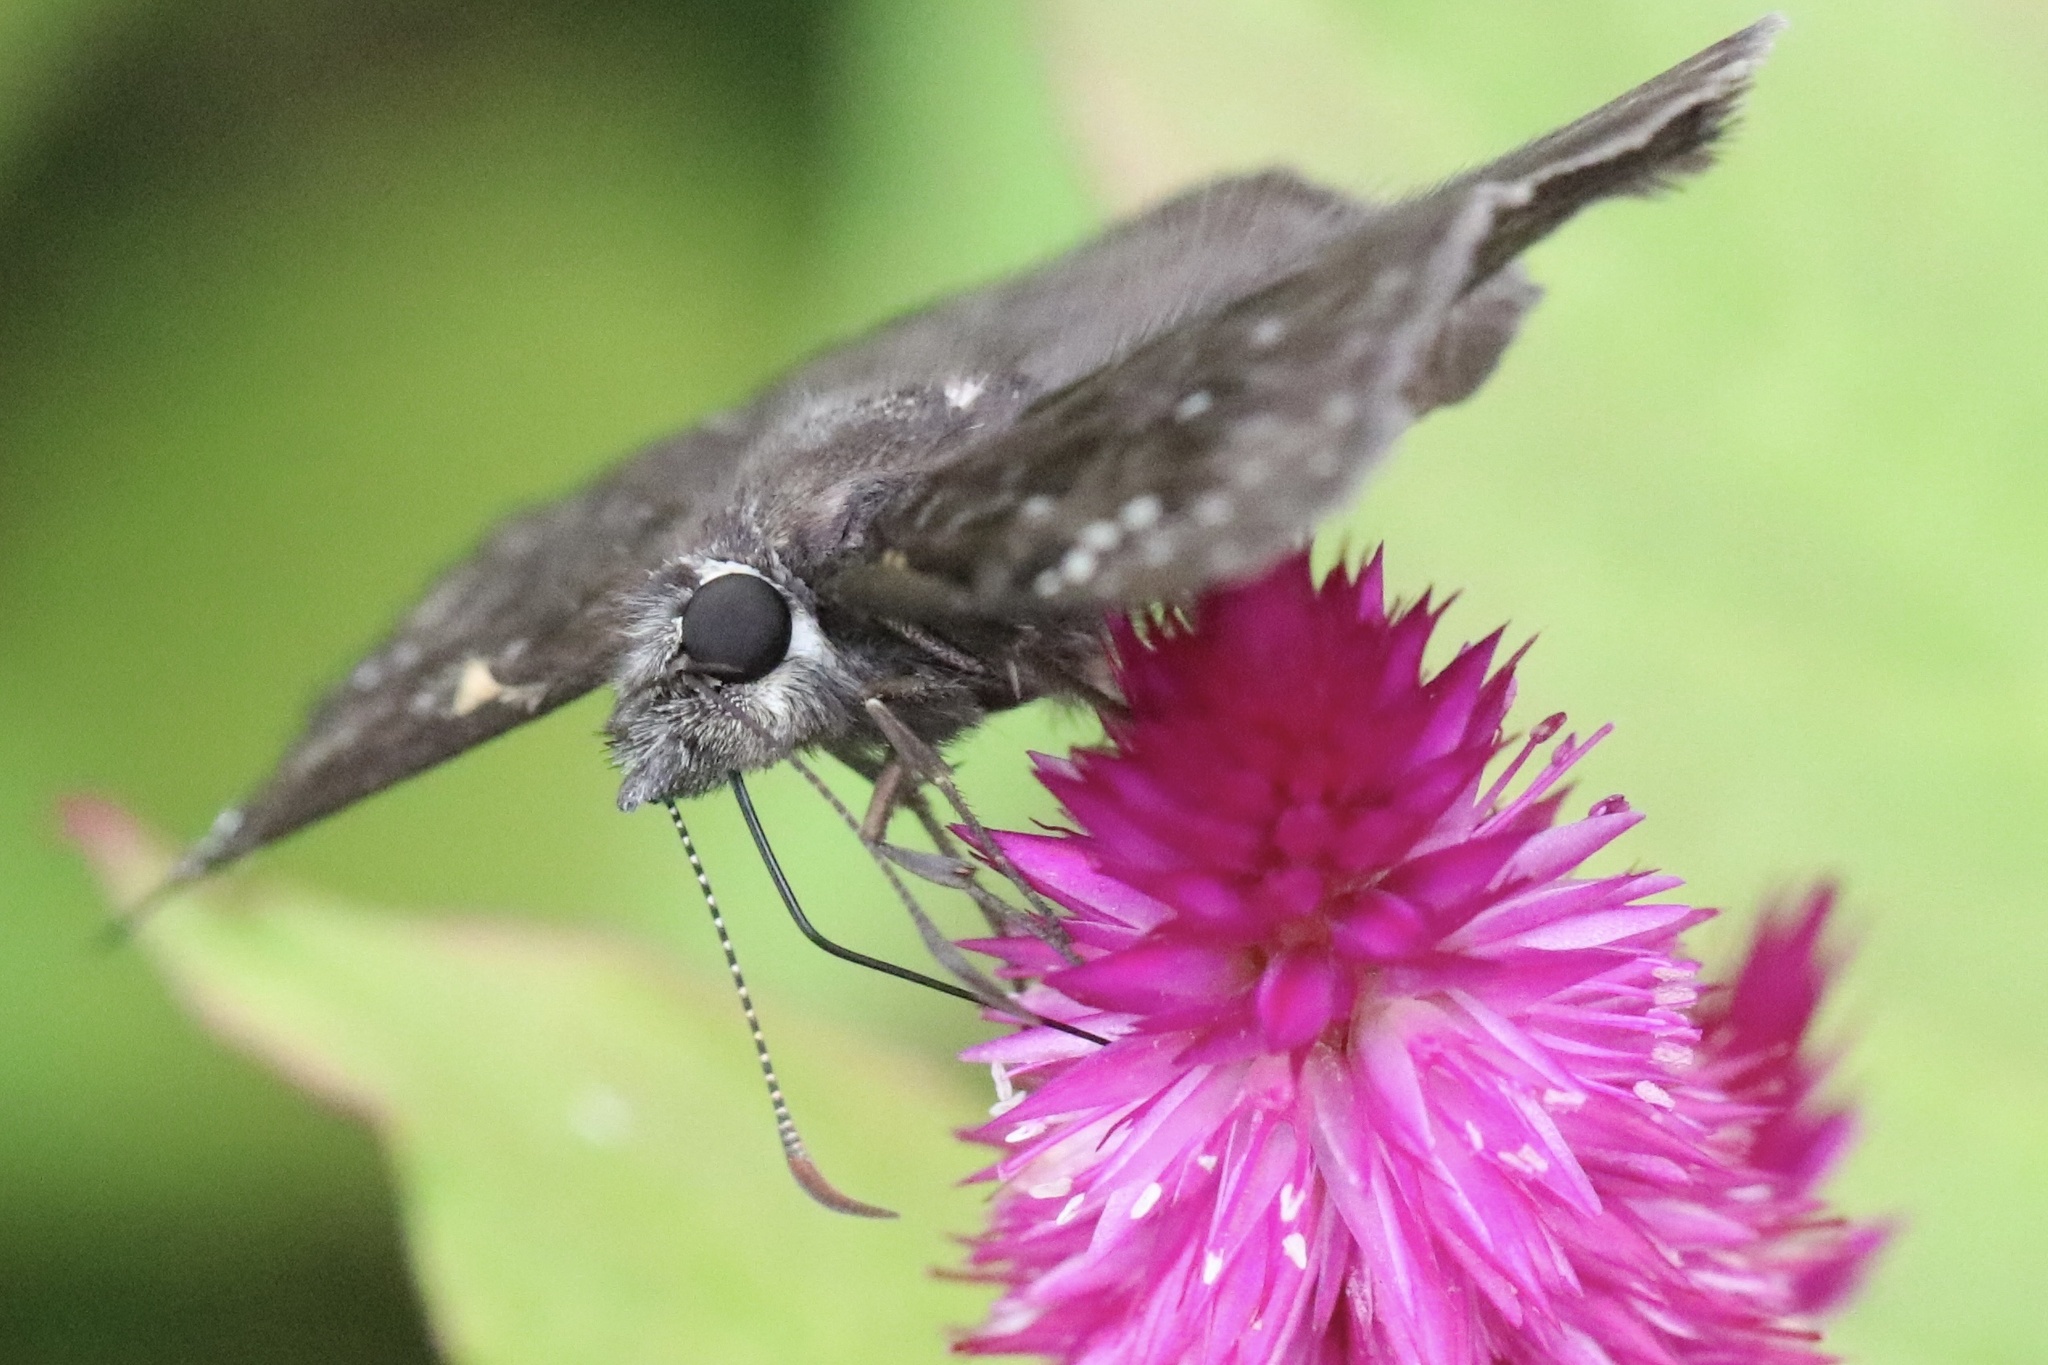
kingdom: Animalia
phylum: Arthropoda
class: Insecta
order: Lepidoptera
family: Hesperiidae
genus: Erynnis
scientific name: Erynnis horatius
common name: Horace's duskywing
